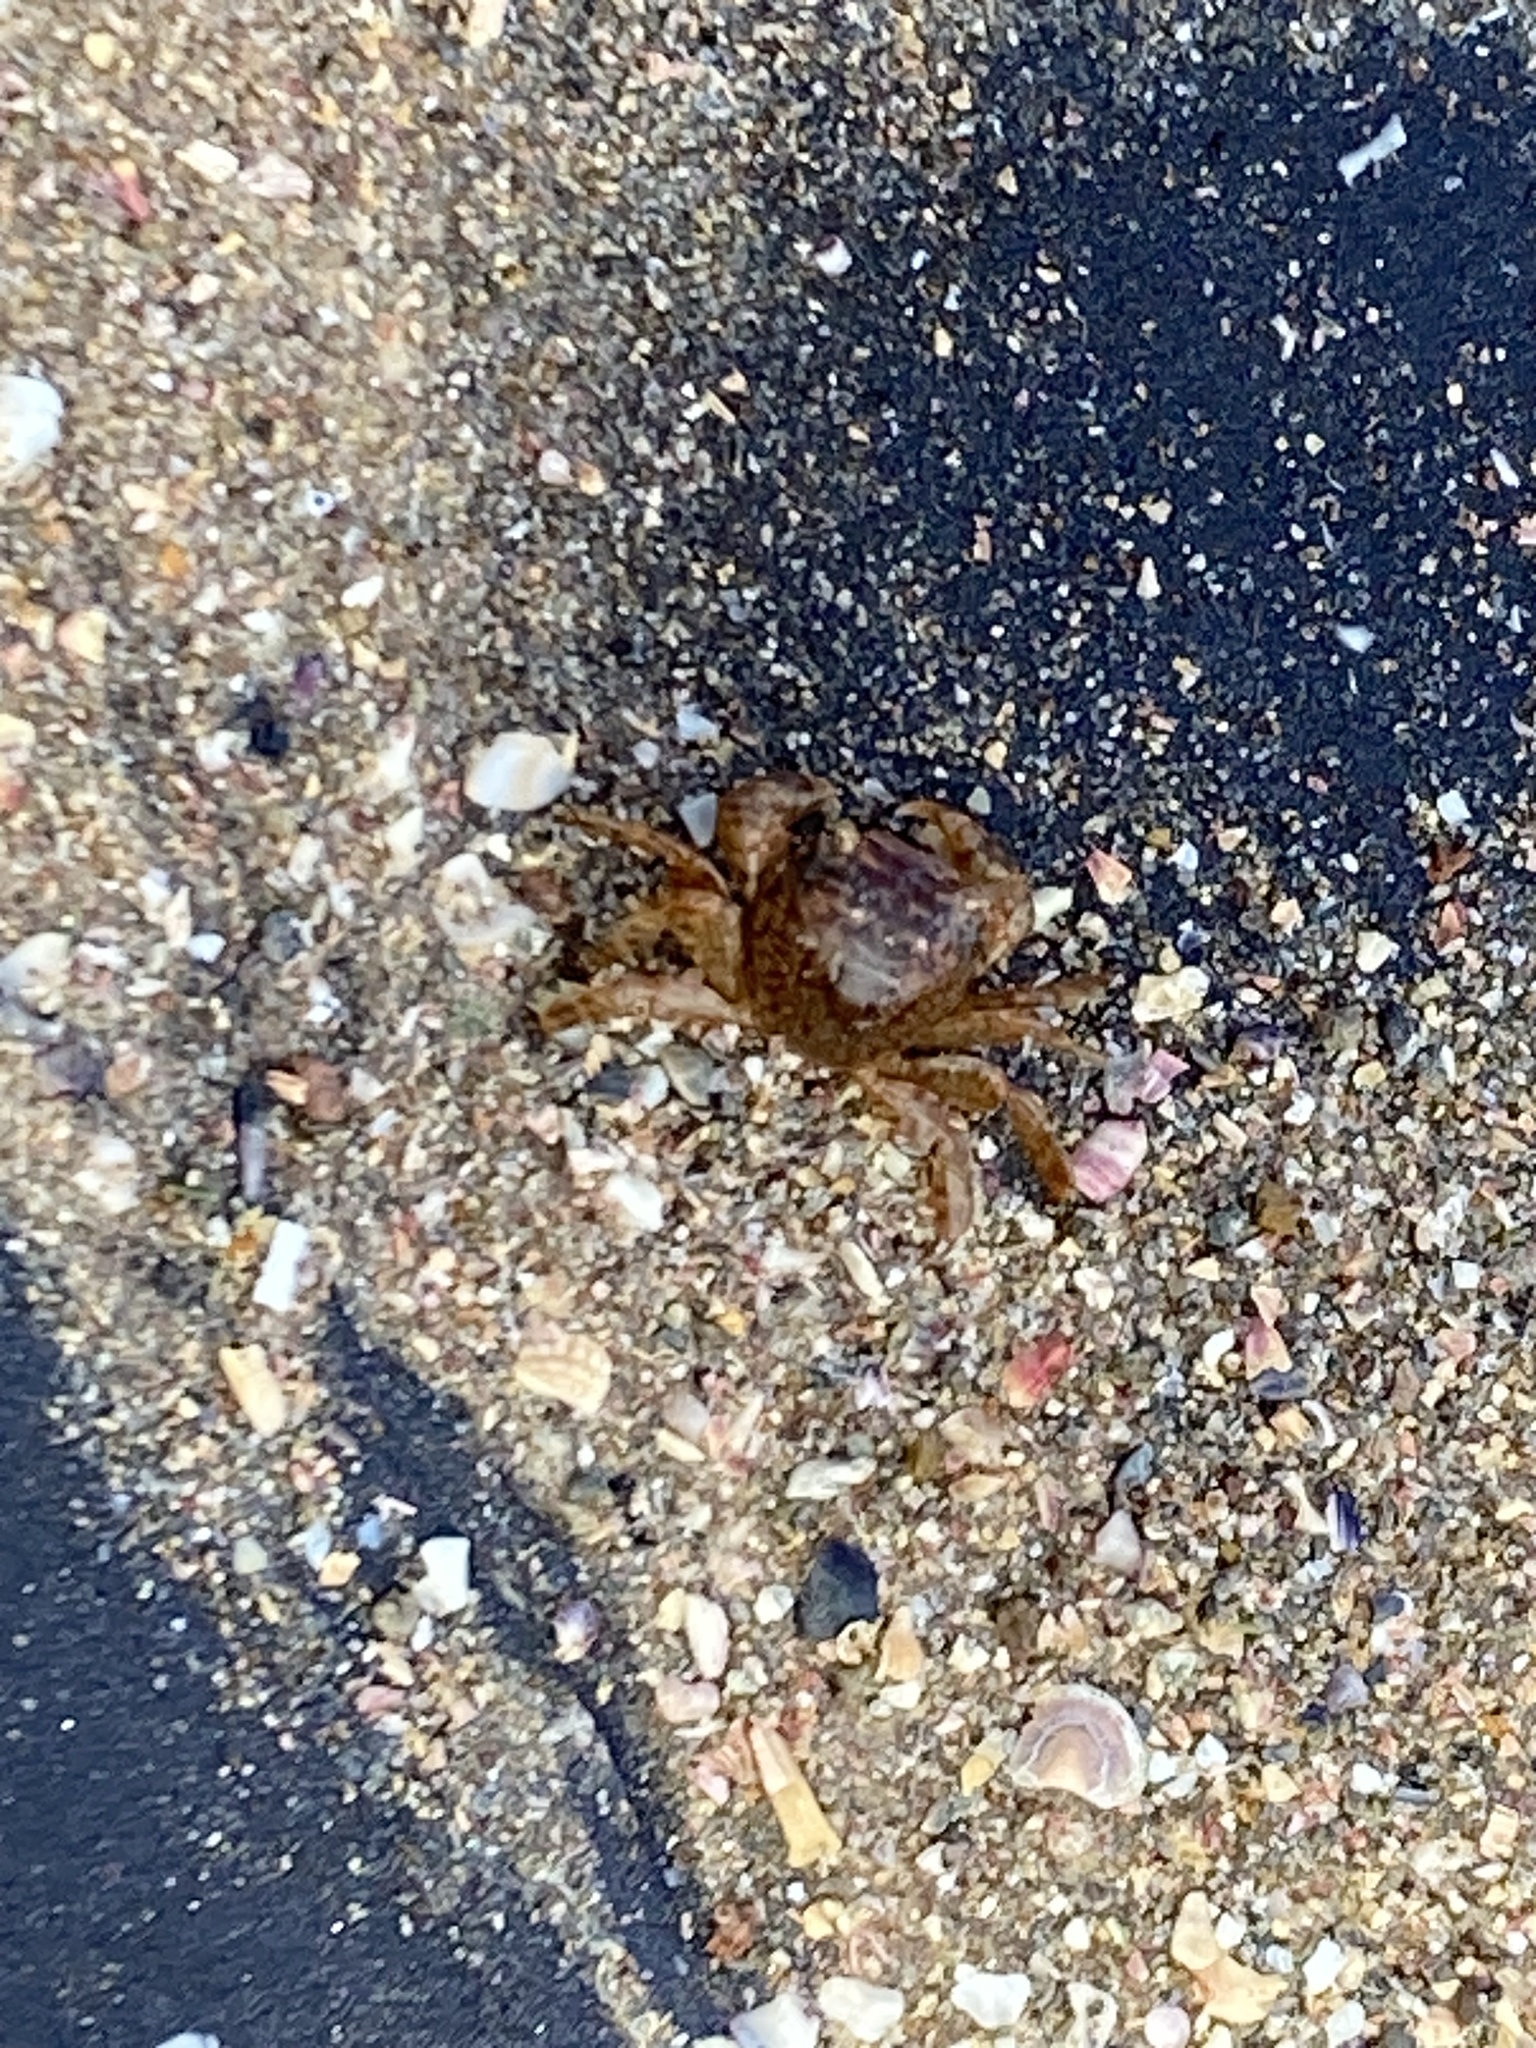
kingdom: Animalia
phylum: Arthropoda
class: Malacostraca
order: Decapoda
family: Grapsidae
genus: Planes
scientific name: Planes minutus
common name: Gulf weed crab
